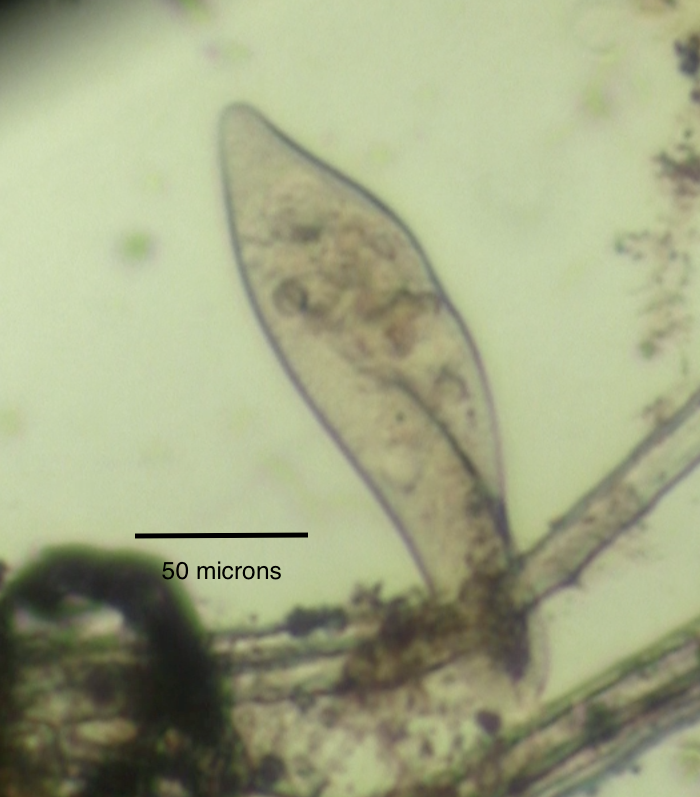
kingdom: Chromista
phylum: Ciliophora
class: Oligohymenophorea
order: Peniculida
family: Parameciidae
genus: Paramecium
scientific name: Paramecium caudatum
